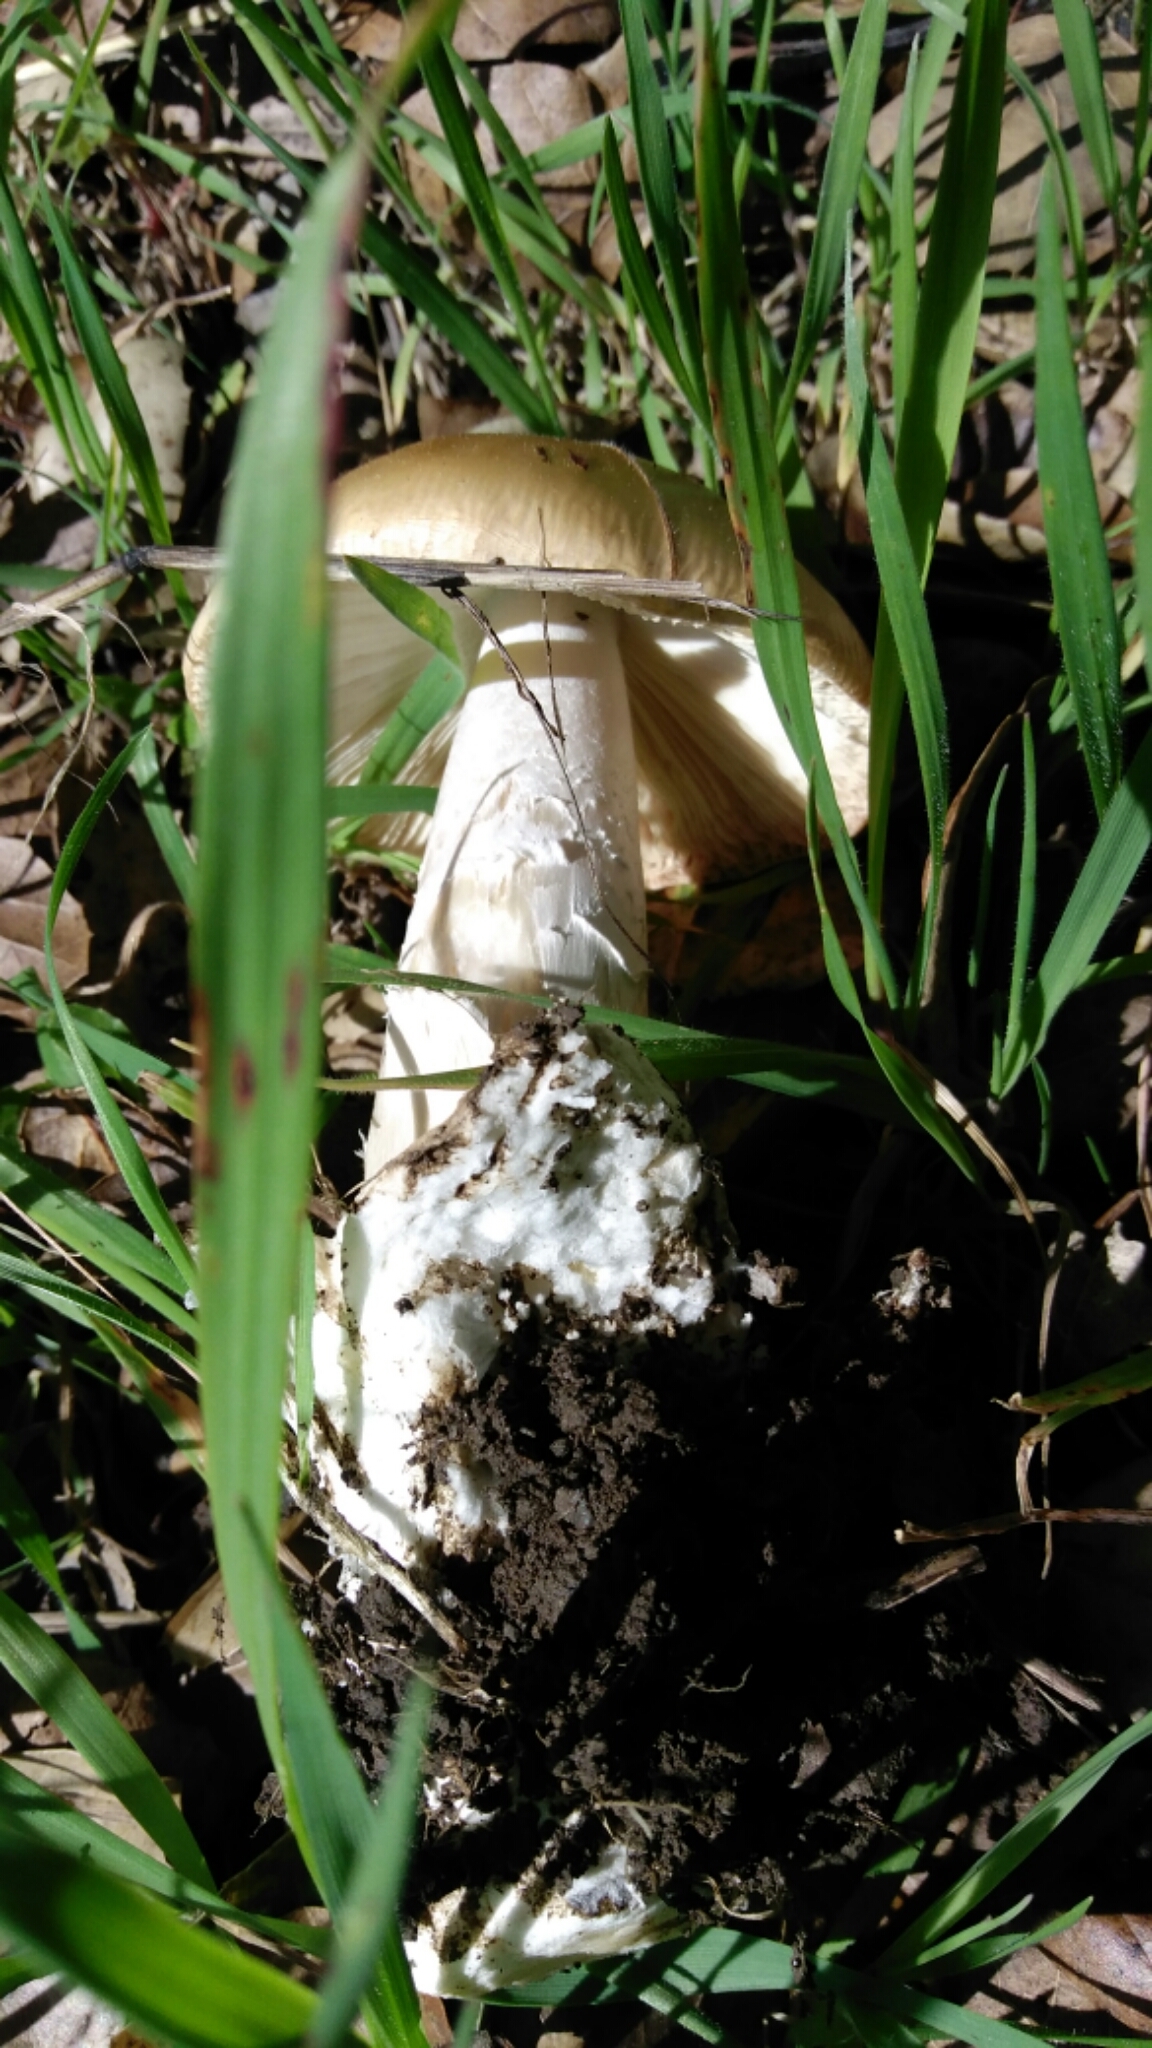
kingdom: Fungi
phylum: Basidiomycota
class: Agaricomycetes
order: Agaricales
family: Amanitaceae
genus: Amanita
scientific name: Amanita velosa
